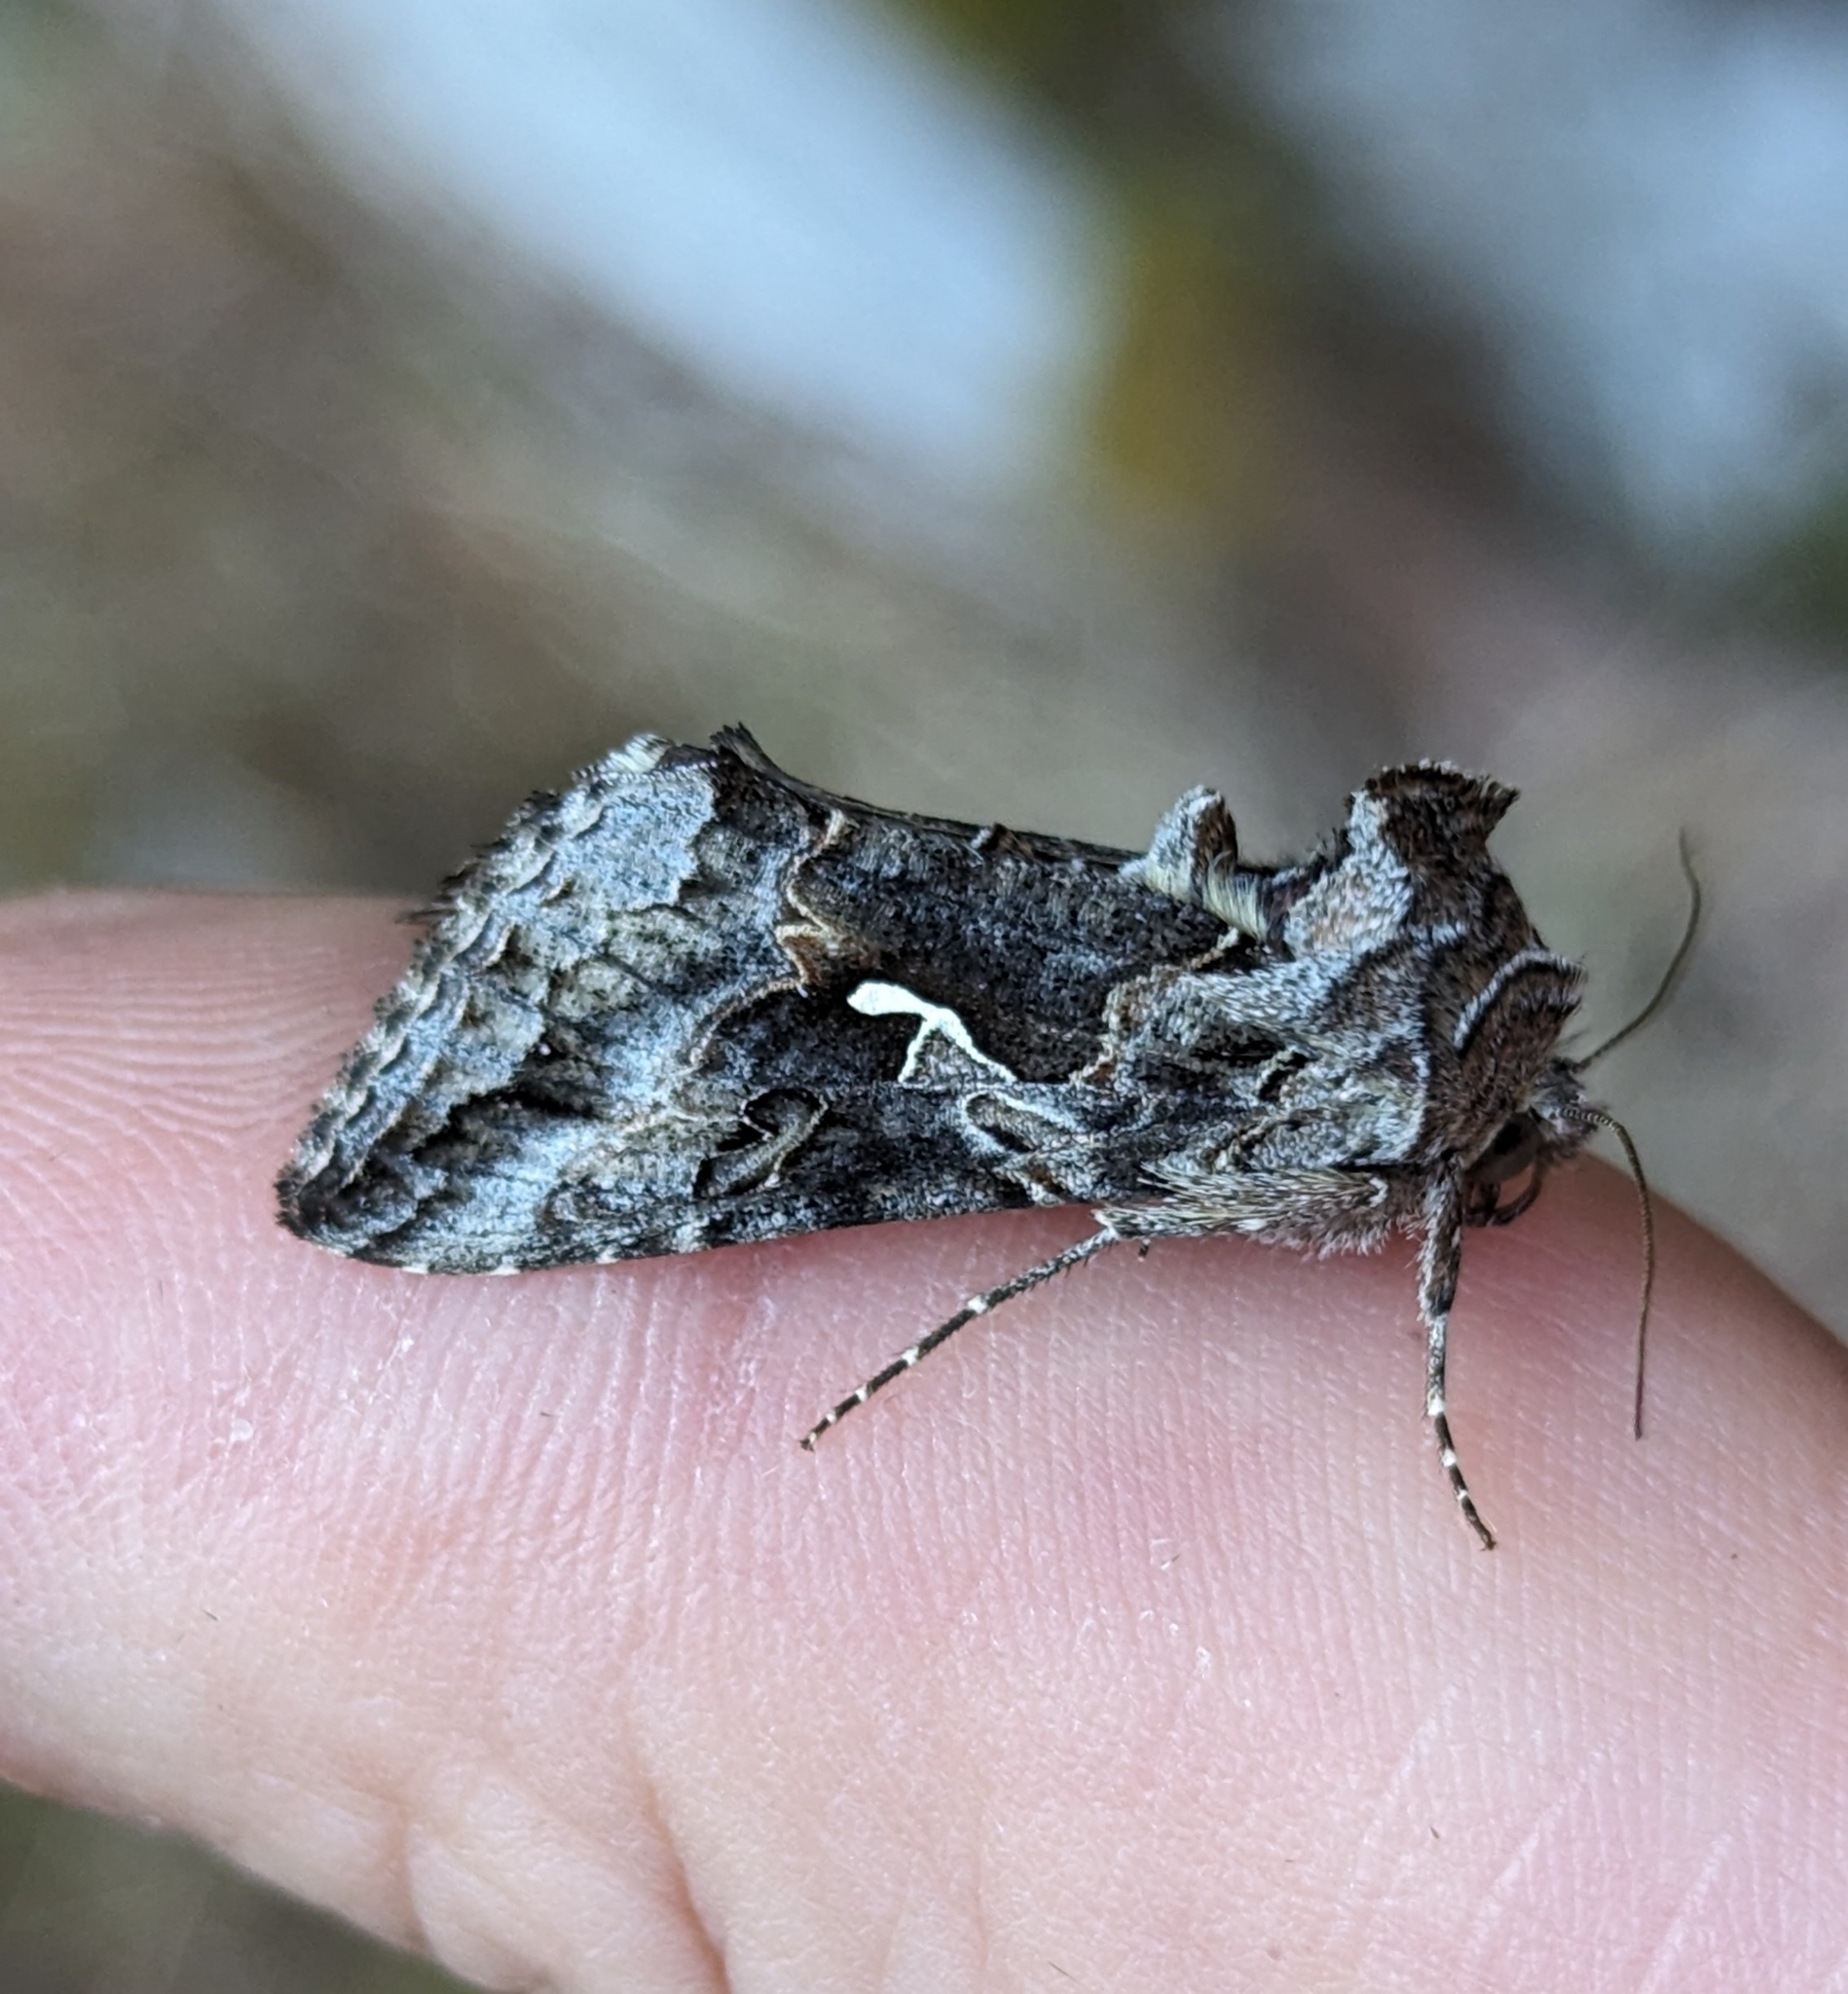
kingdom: Animalia
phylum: Arthropoda
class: Insecta
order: Lepidoptera
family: Noctuidae
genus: Autographa
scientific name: Autographa californica
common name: Alfalfa looper
